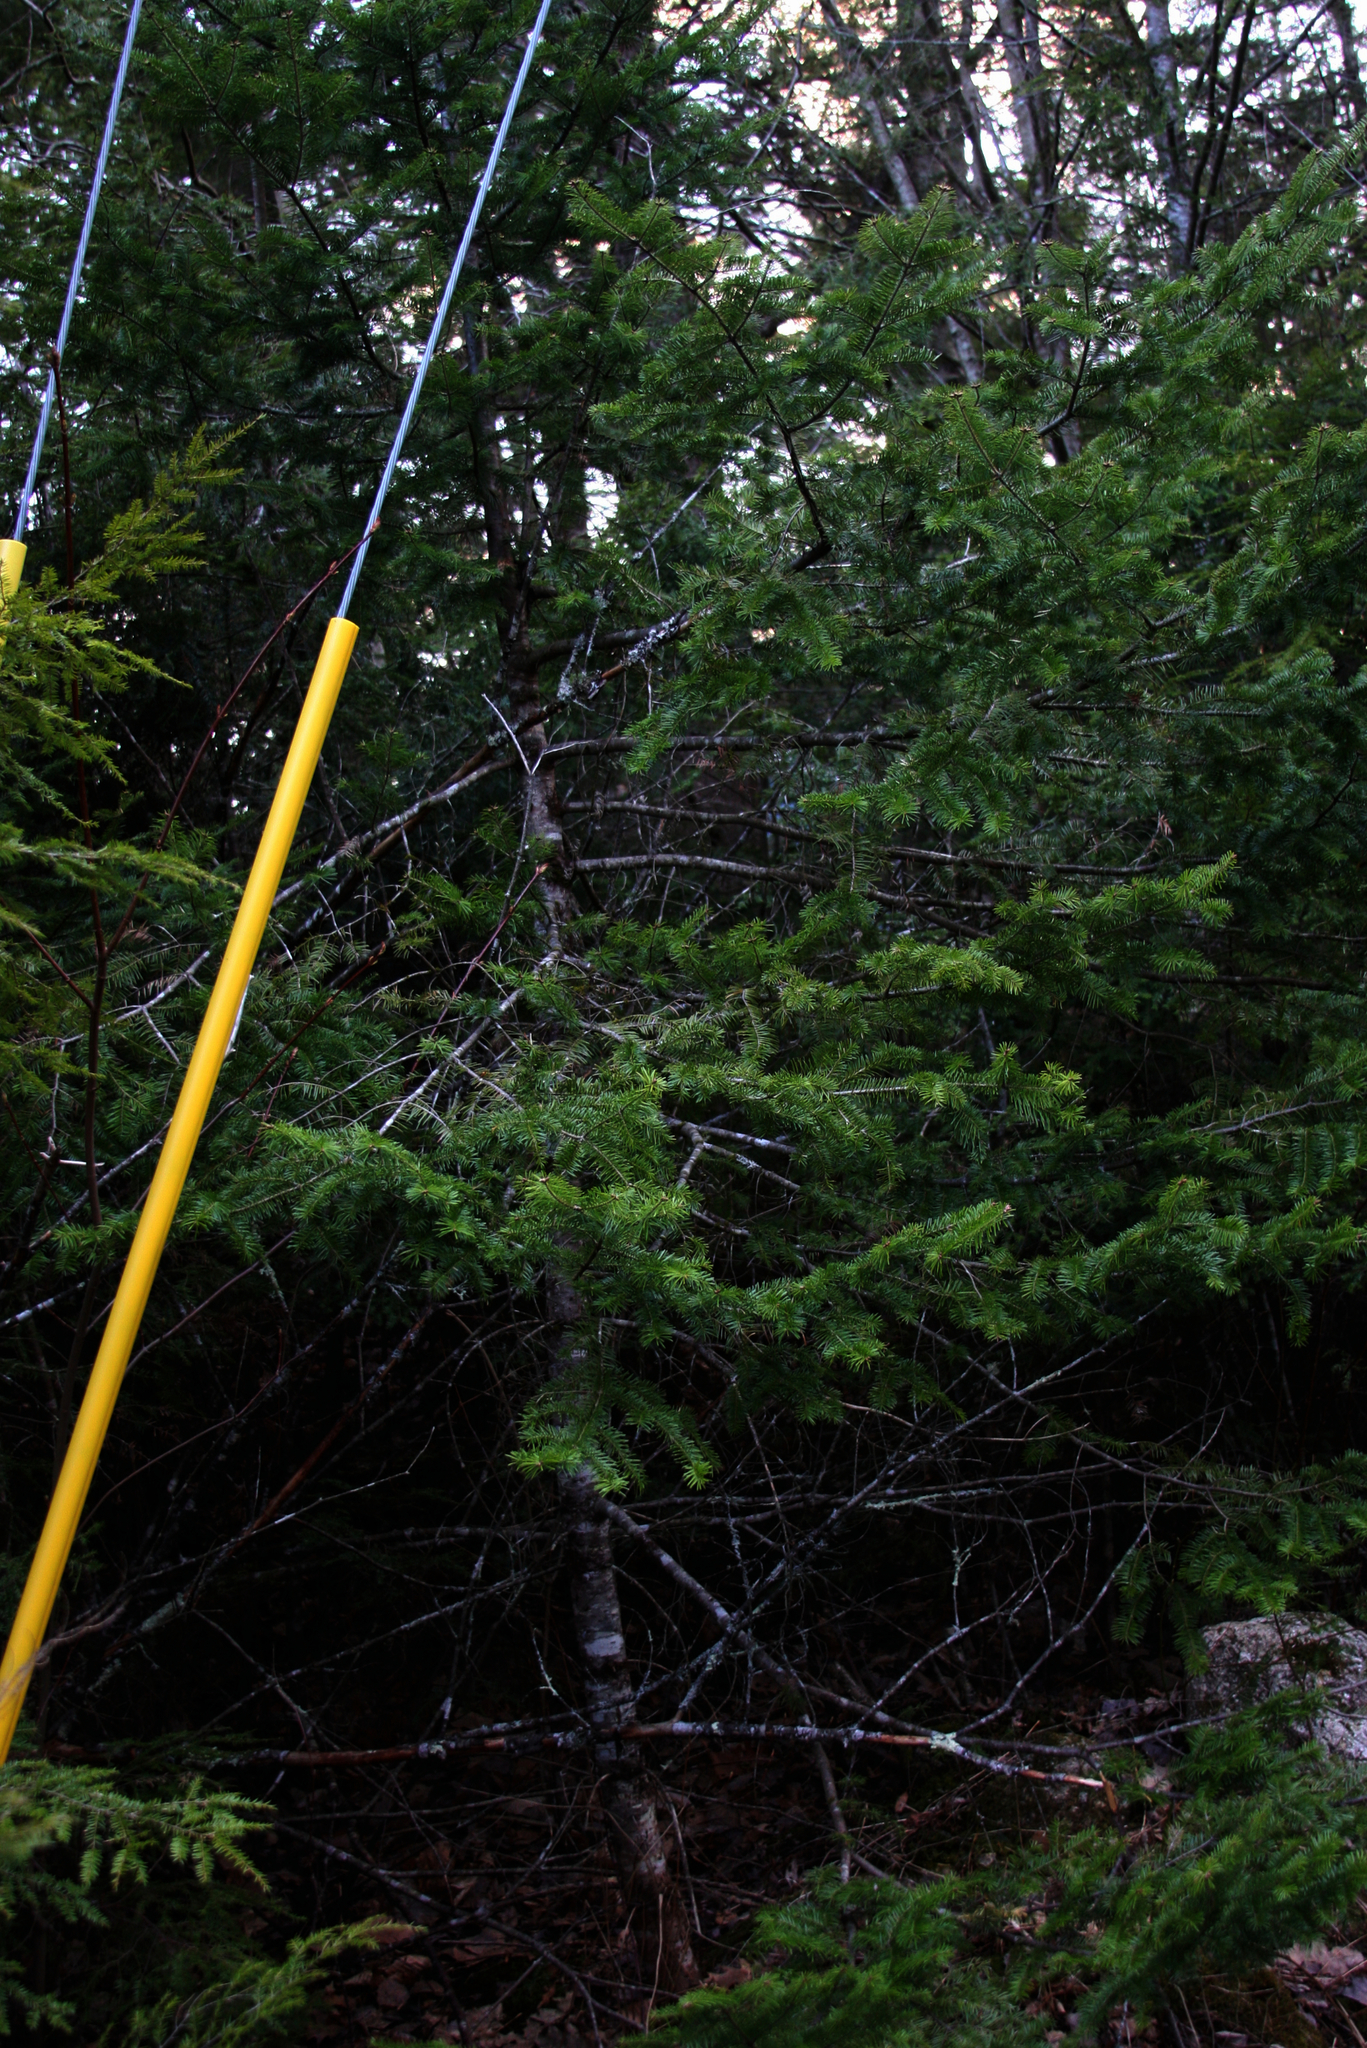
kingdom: Plantae
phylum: Tracheophyta
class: Pinopsida
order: Pinales
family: Pinaceae
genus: Abies
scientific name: Abies balsamea
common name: Balsam fir
